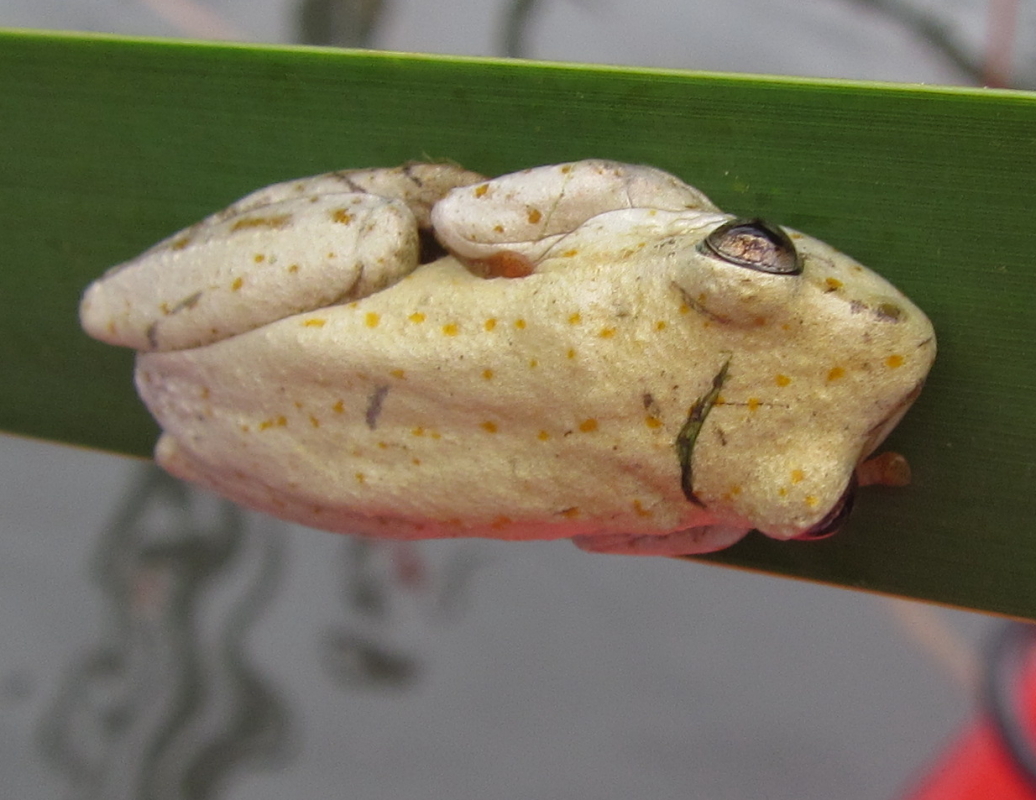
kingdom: Animalia
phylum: Chordata
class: Amphibia
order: Anura
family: Hyperoliidae
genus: Hyperolius
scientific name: Hyperolius marmoratus
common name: Painted reed frog
